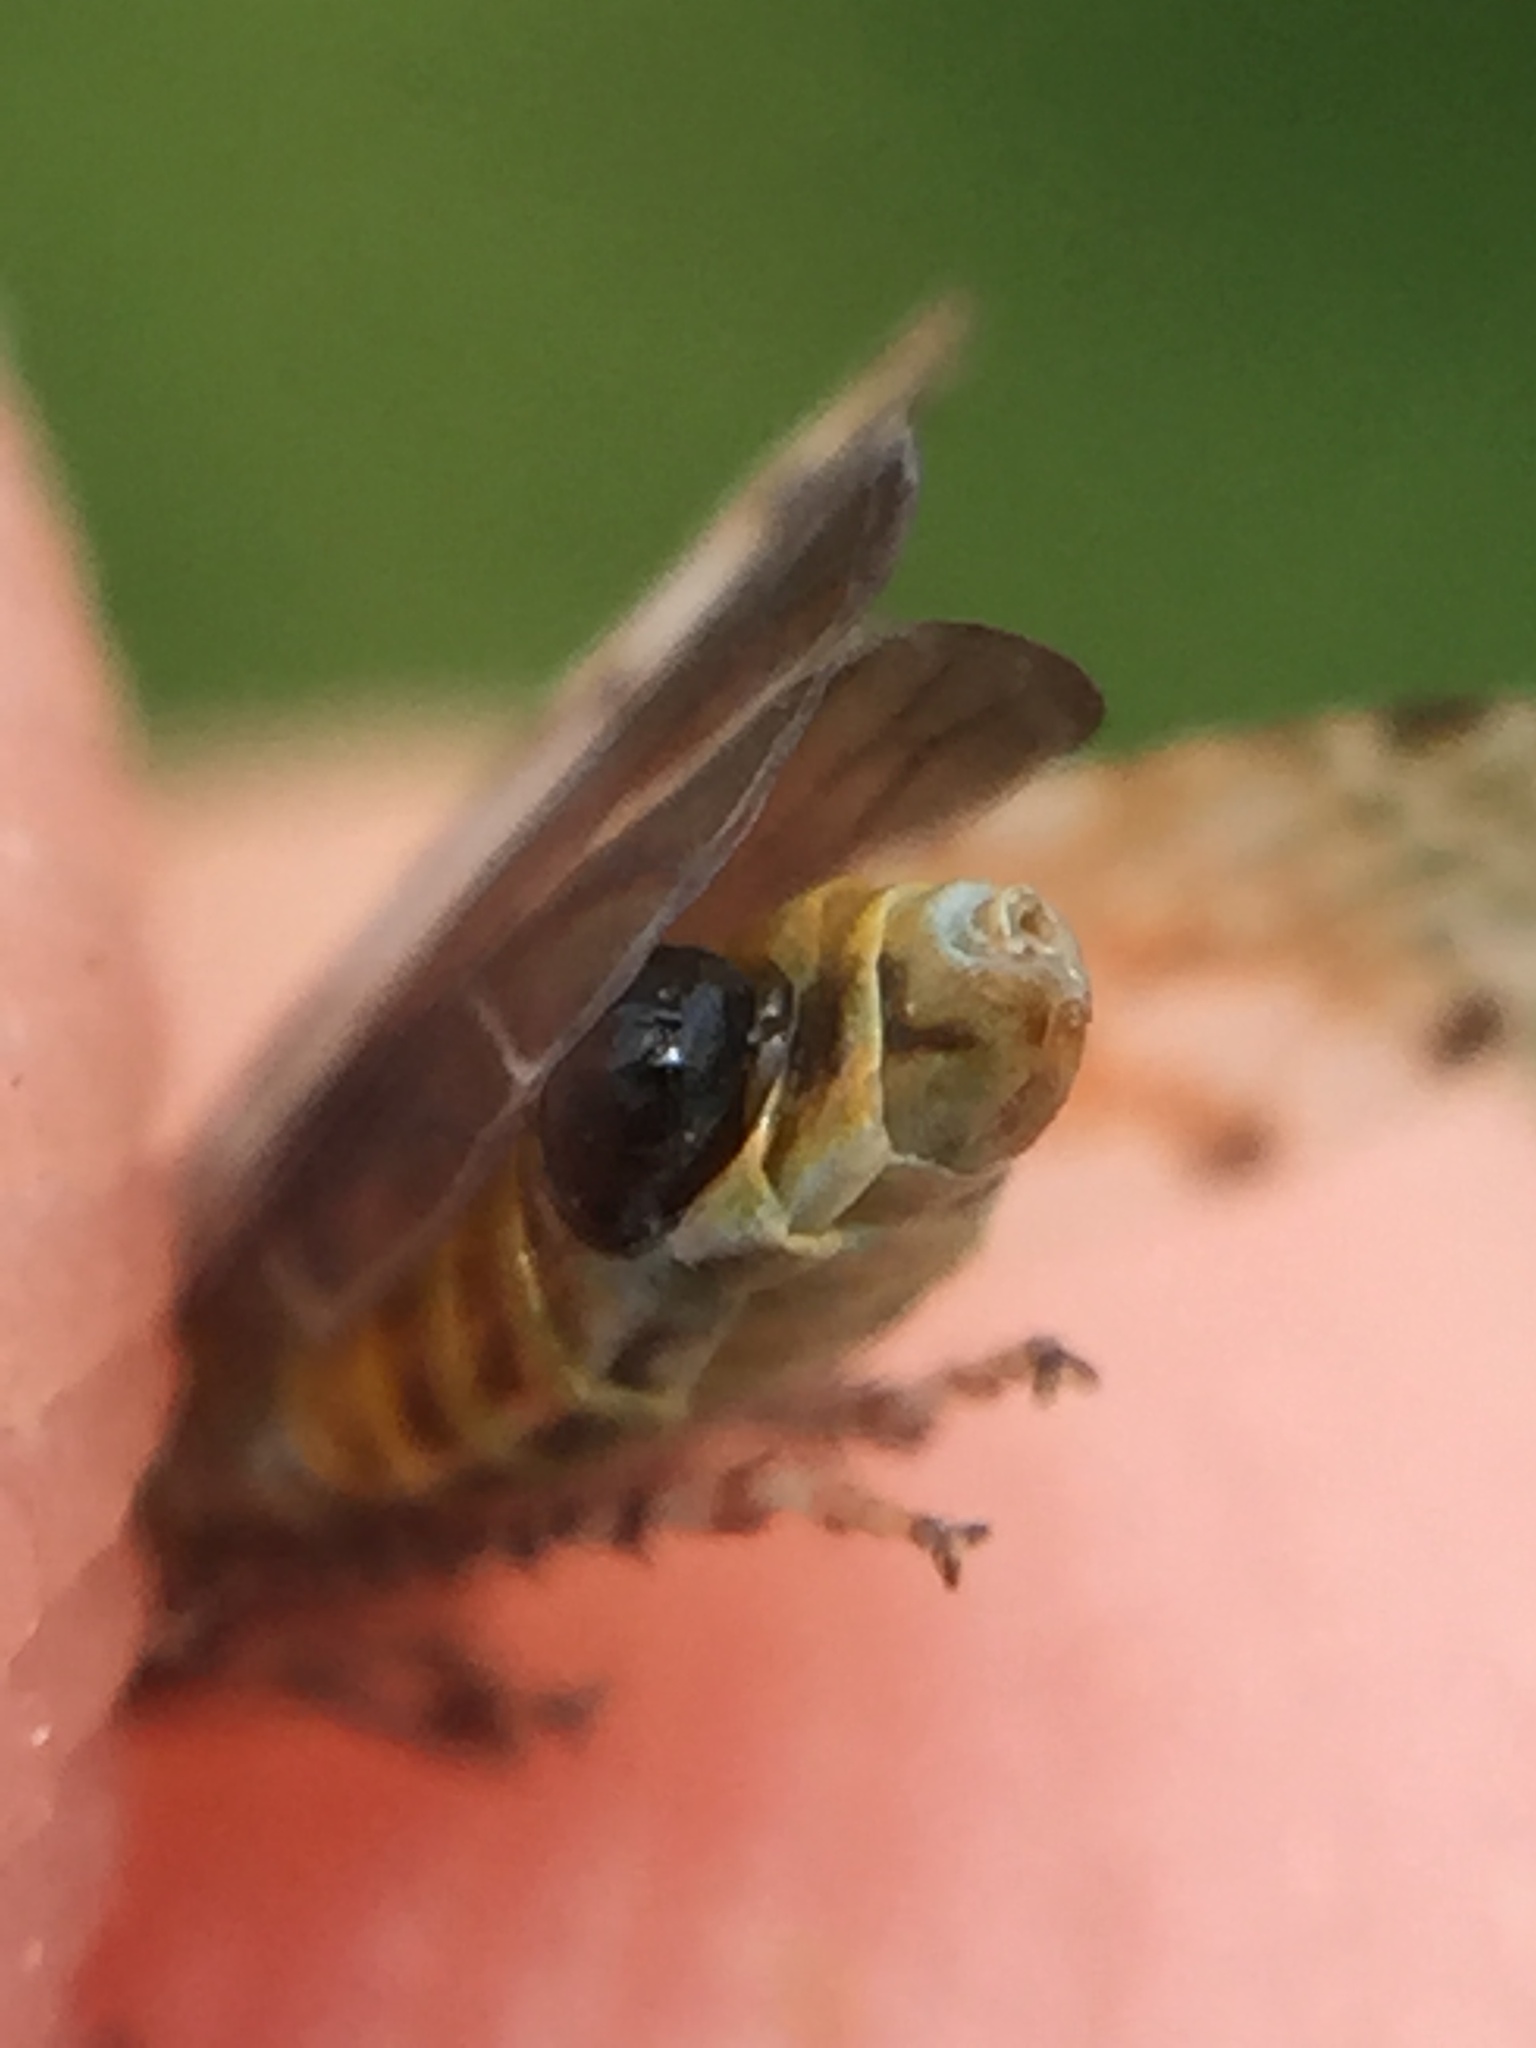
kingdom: Animalia
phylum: Arthropoda
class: Insecta
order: Strepsiptera
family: Halictophagidae
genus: Coriophagus
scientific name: Coriophagus casui
